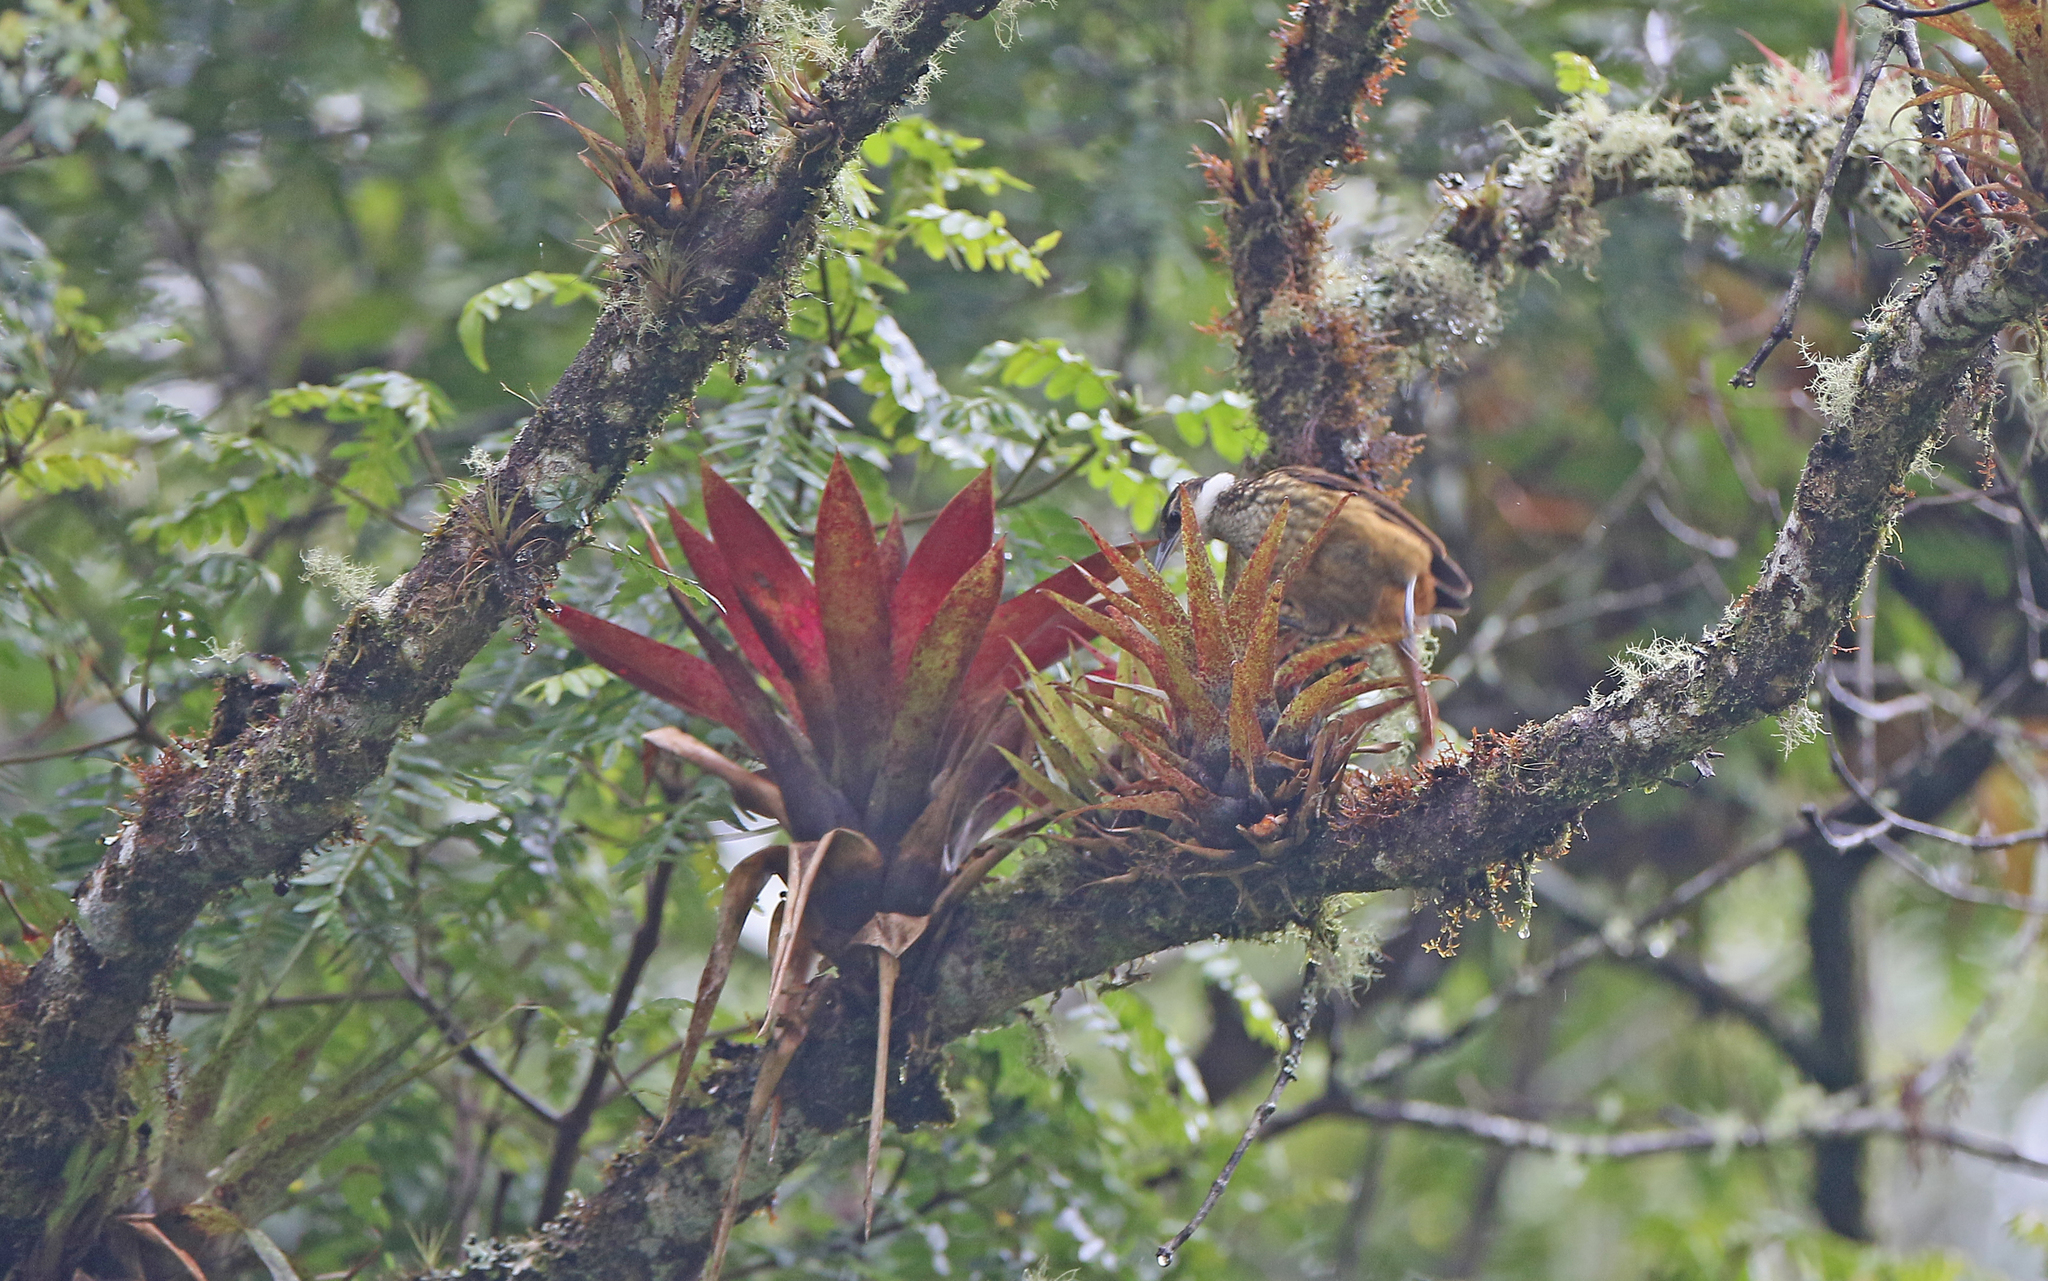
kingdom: Animalia
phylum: Chordata
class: Aves
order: Passeriformes
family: Furnariidae
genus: Pseudocolaptes
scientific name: Pseudocolaptes boissonneautii
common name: Streaked tuftedcheek
